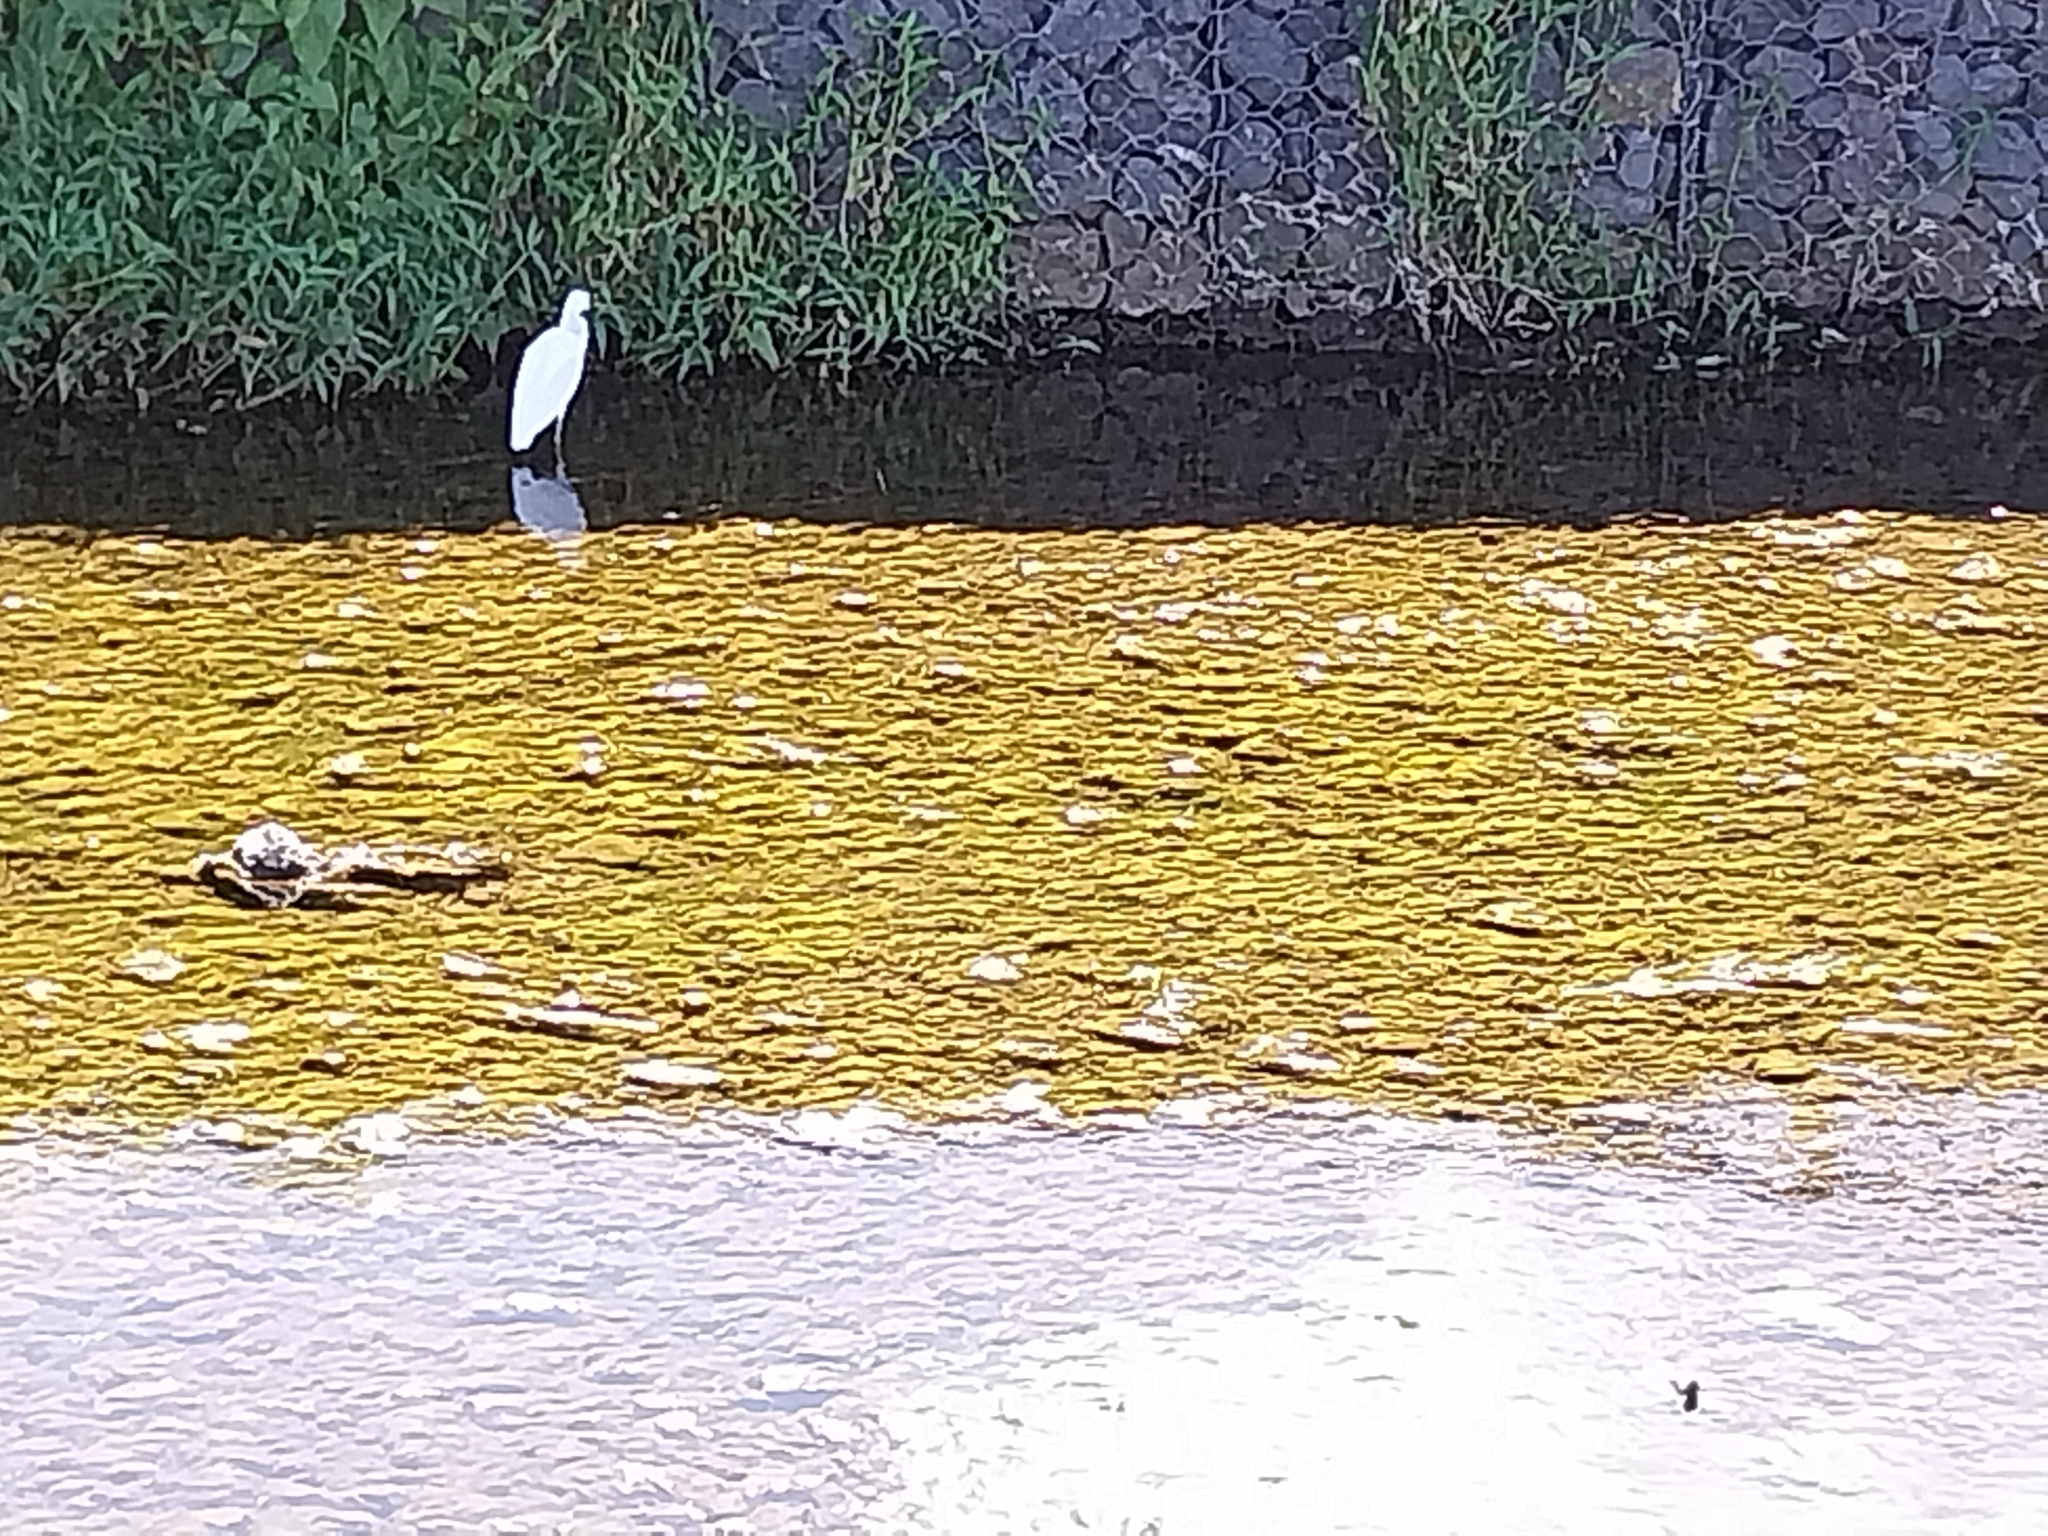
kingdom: Animalia
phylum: Chordata
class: Aves
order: Pelecaniformes
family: Ardeidae
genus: Egretta
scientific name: Egretta sacra
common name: Pacific reef heron
